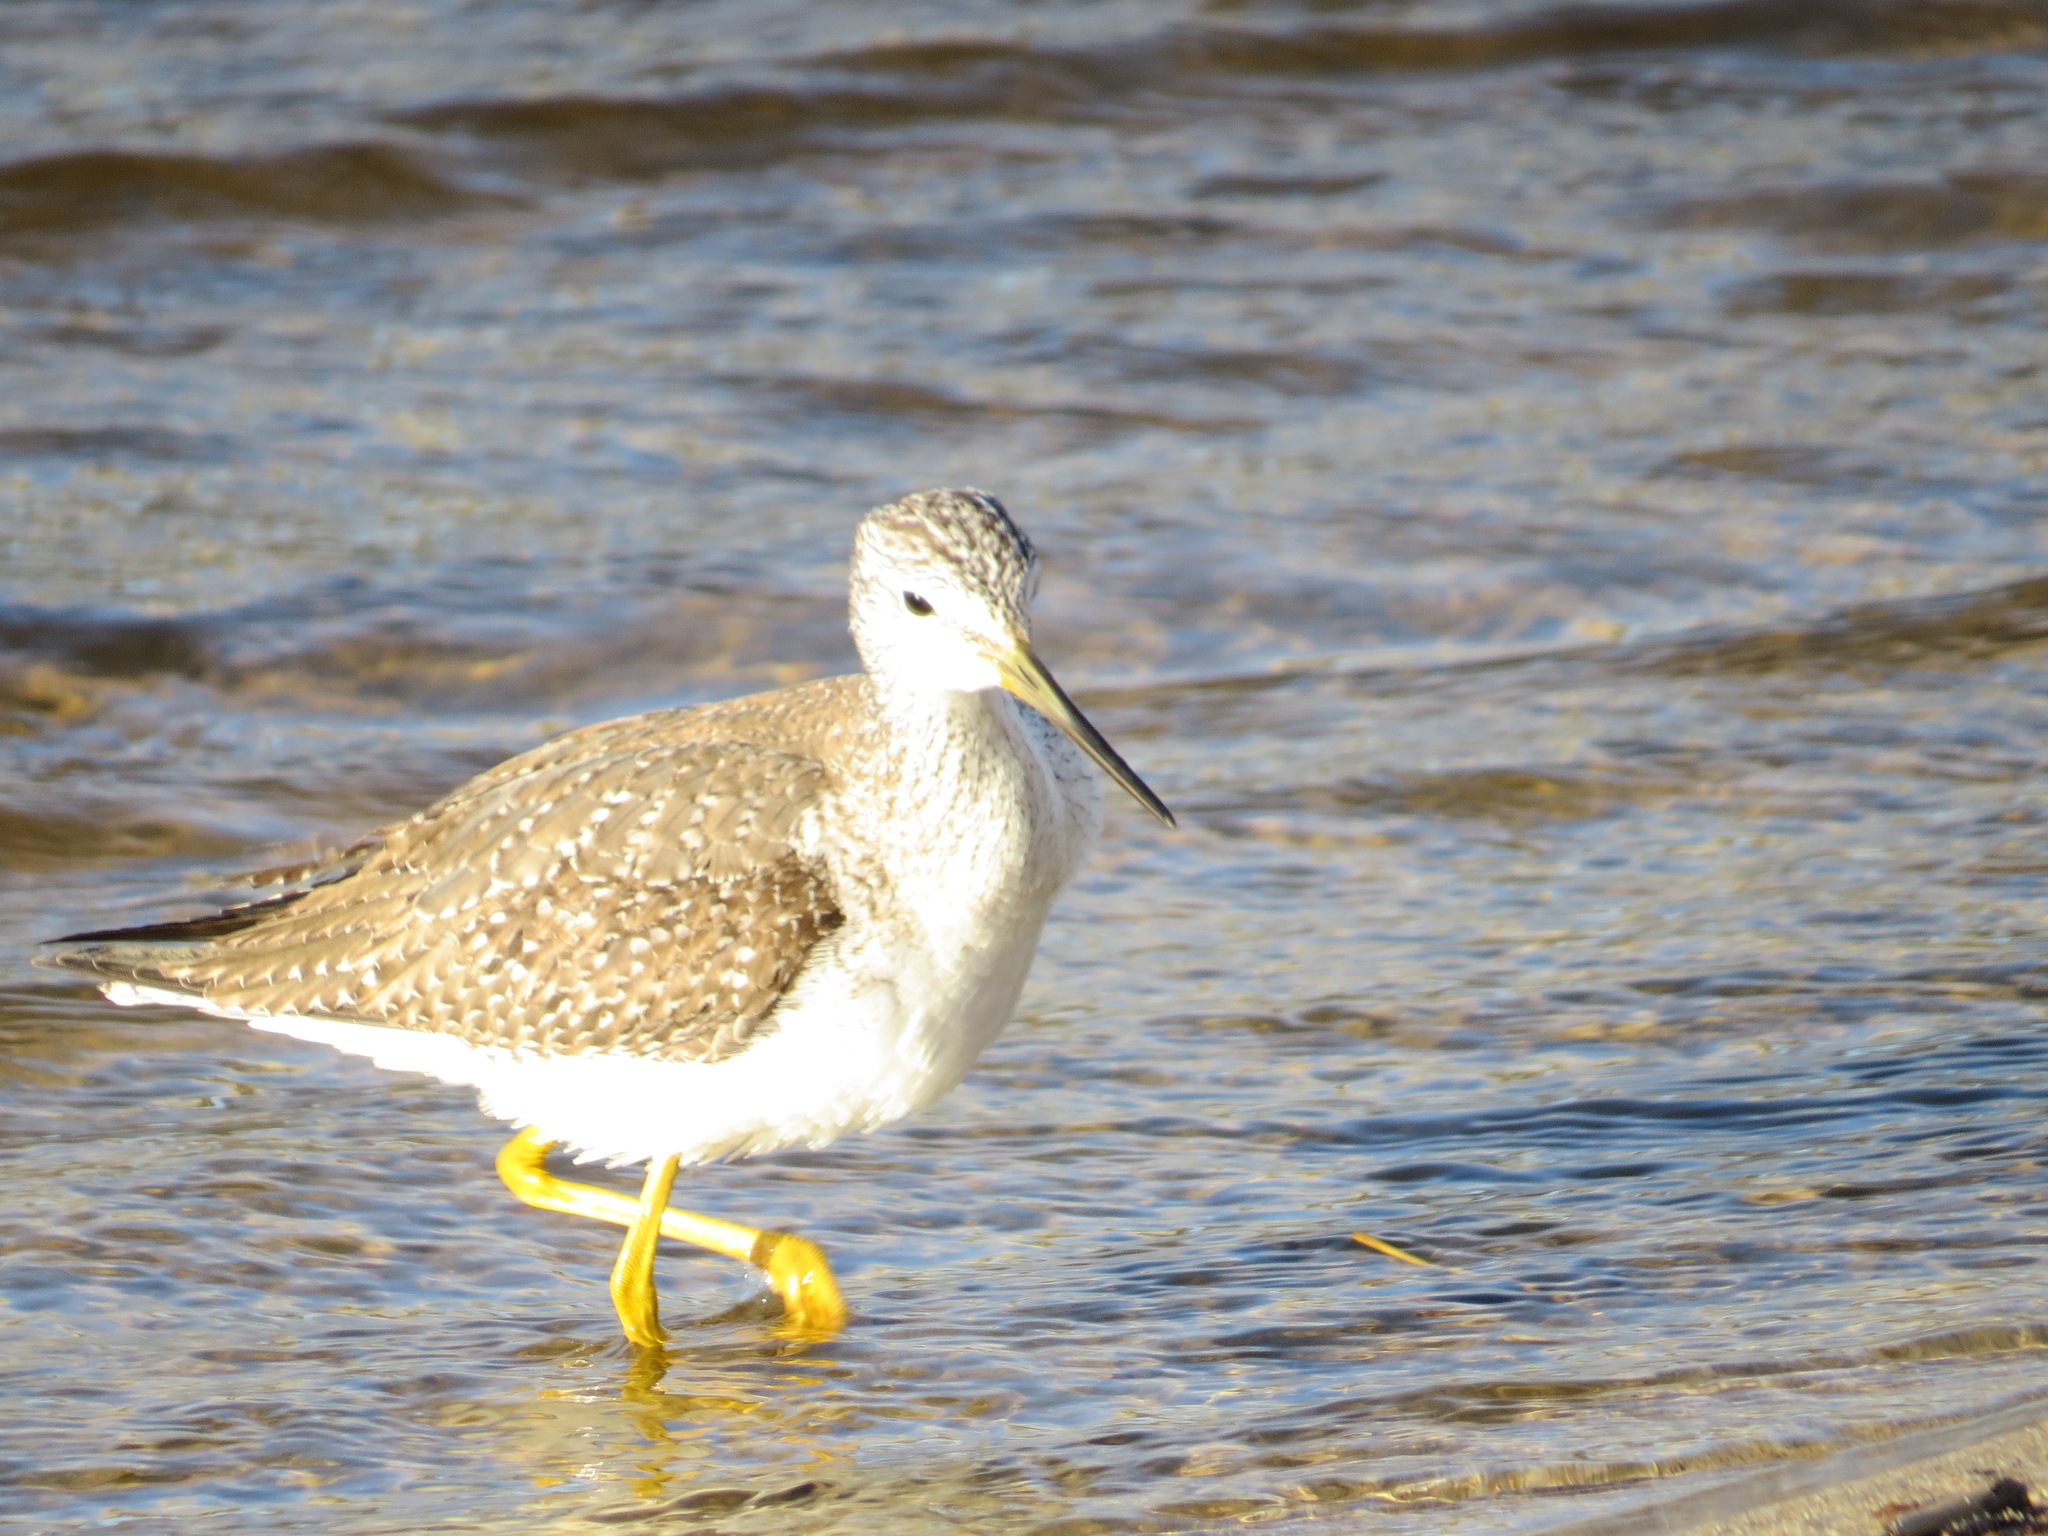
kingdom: Animalia
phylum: Chordata
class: Aves
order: Charadriiformes
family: Scolopacidae
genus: Tringa
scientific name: Tringa melanoleuca
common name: Greater yellowlegs
